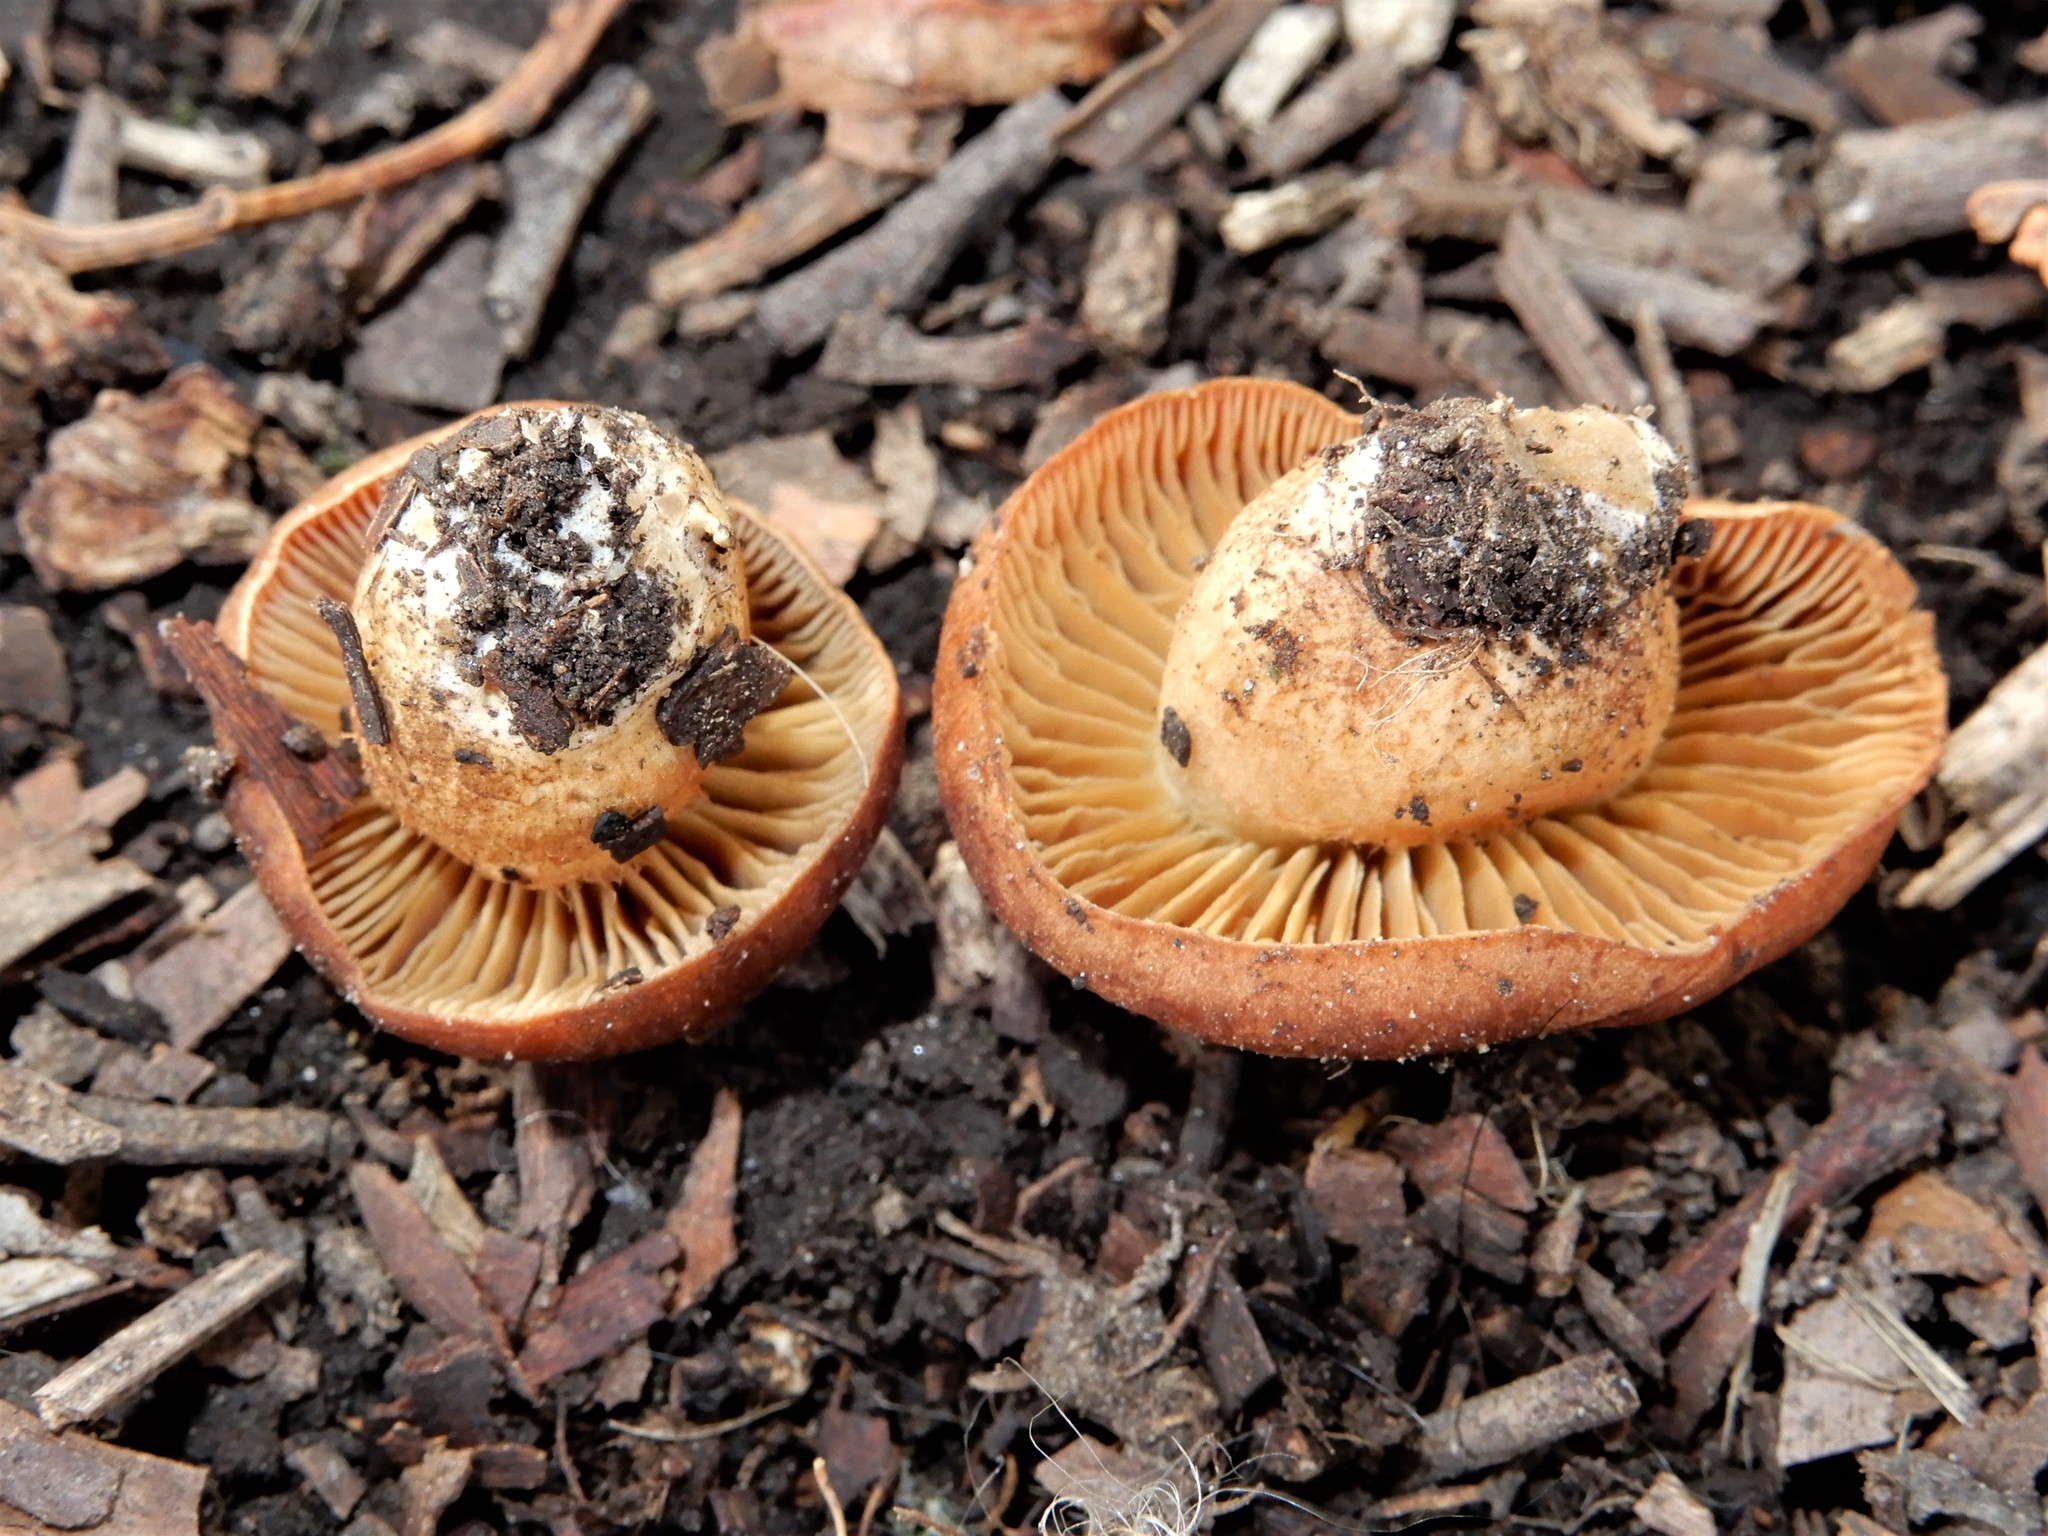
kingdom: Fungi
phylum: Basidiomycota
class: Agaricomycetes
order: Agaricales
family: Cortinariaceae
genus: Cortinarius
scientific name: Cortinarius
